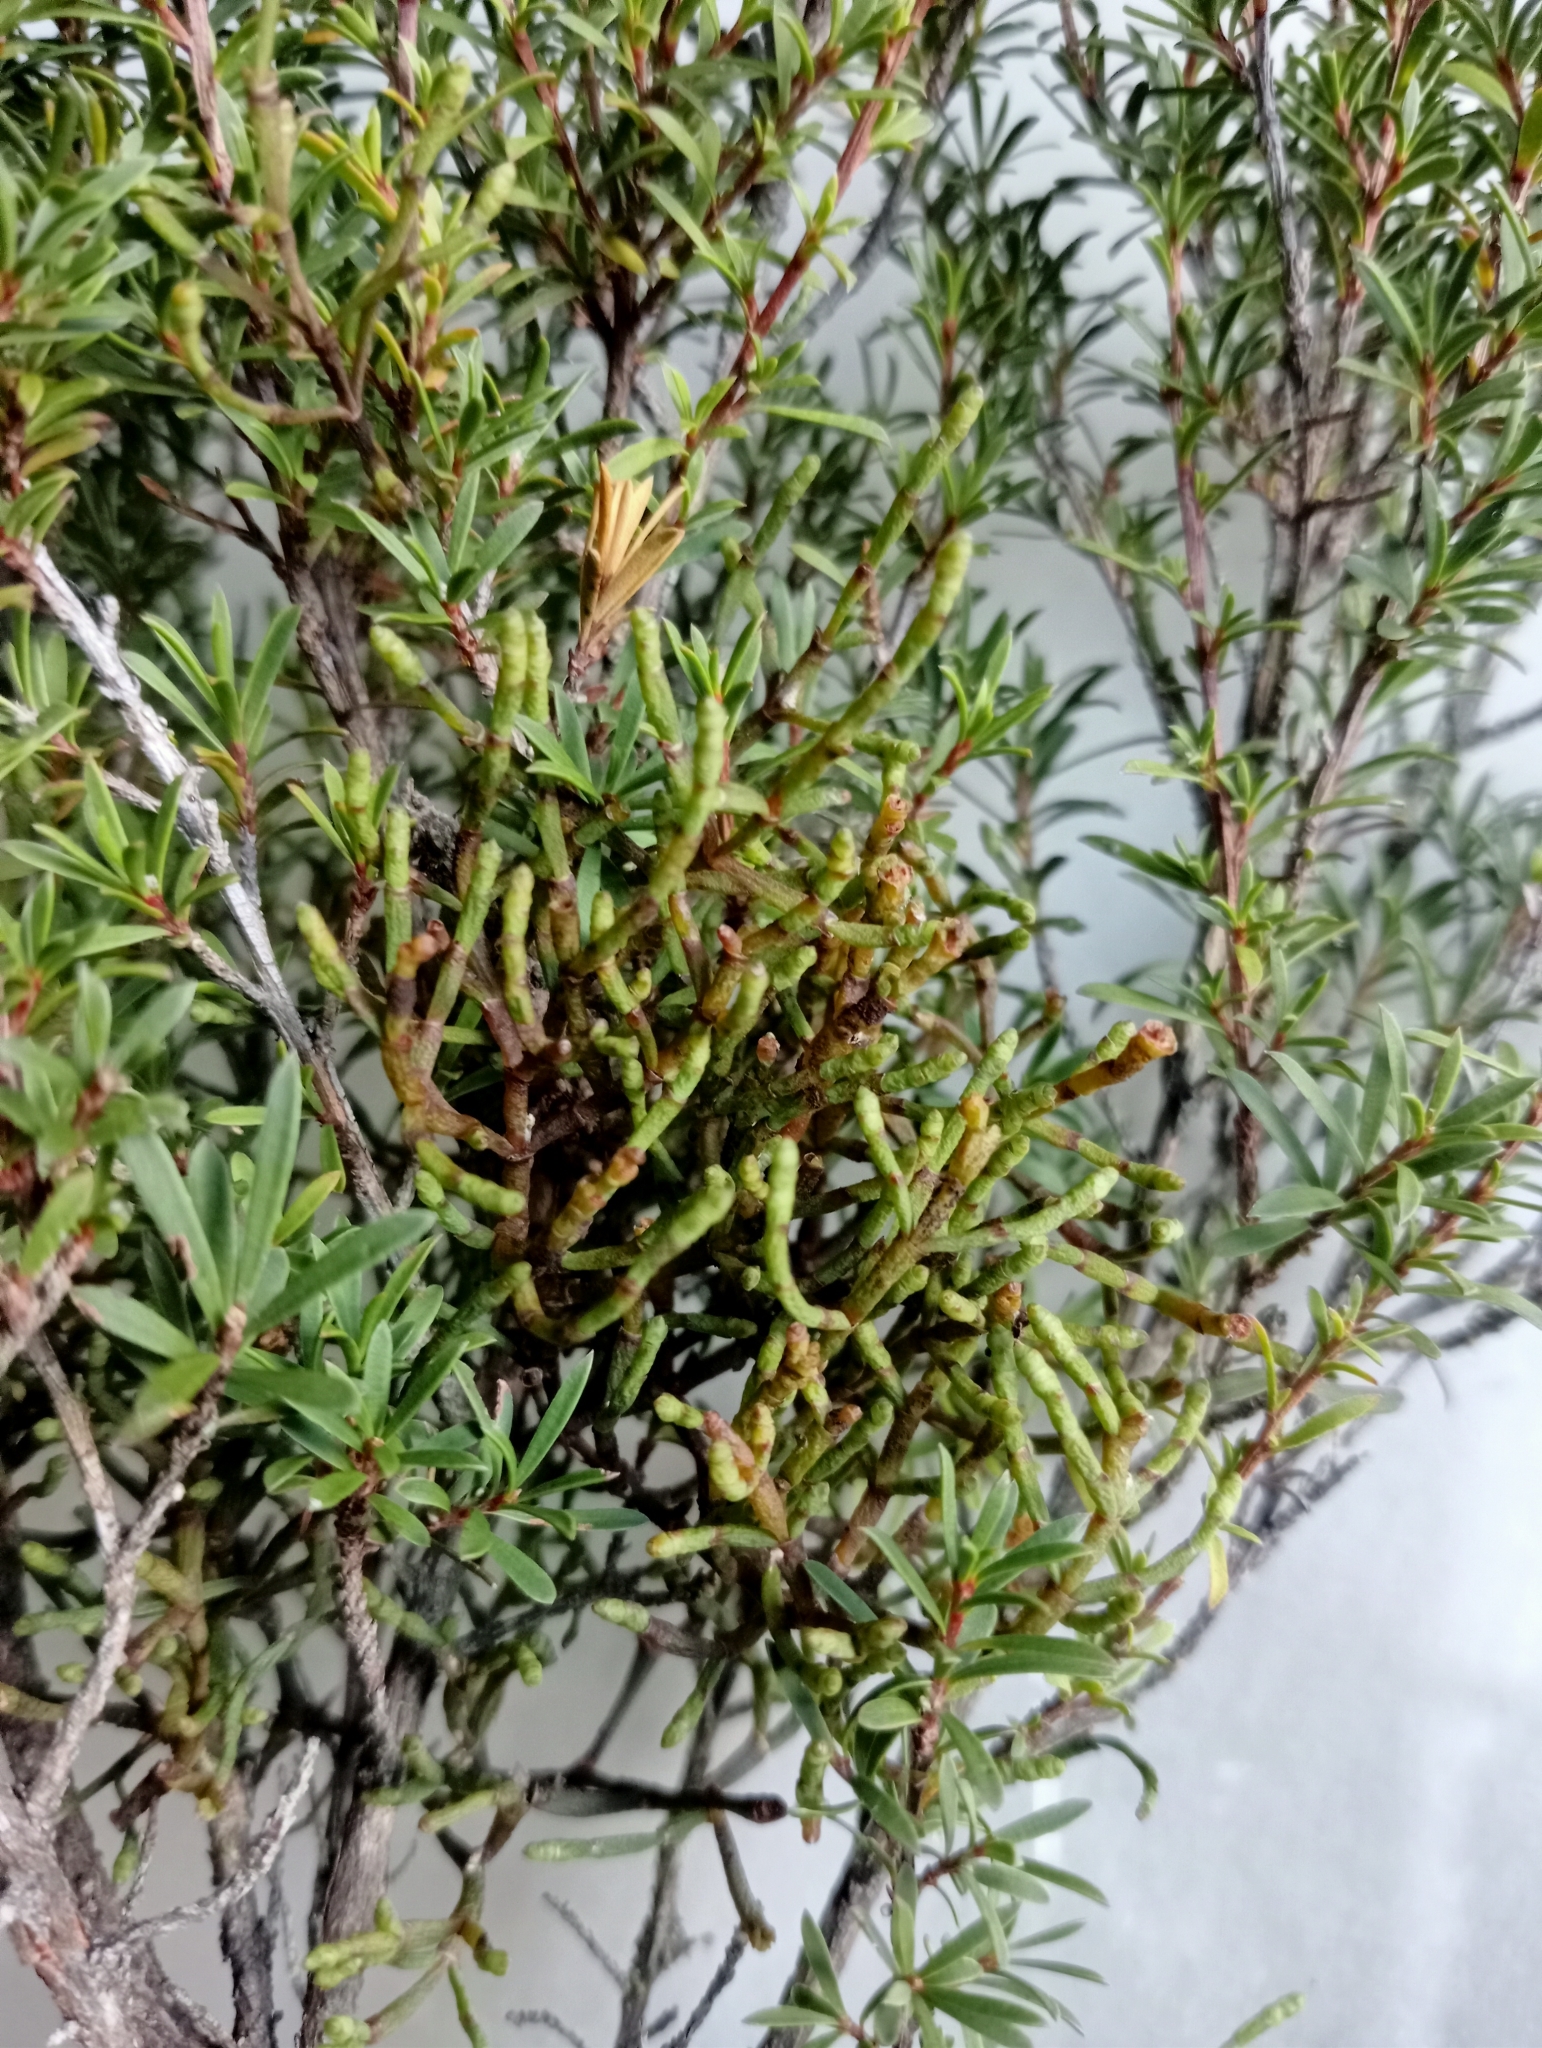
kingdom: Plantae
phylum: Tracheophyta
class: Magnoliopsida
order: Santalales
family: Viscaceae
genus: Korthalsella
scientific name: Korthalsella salicornioides
